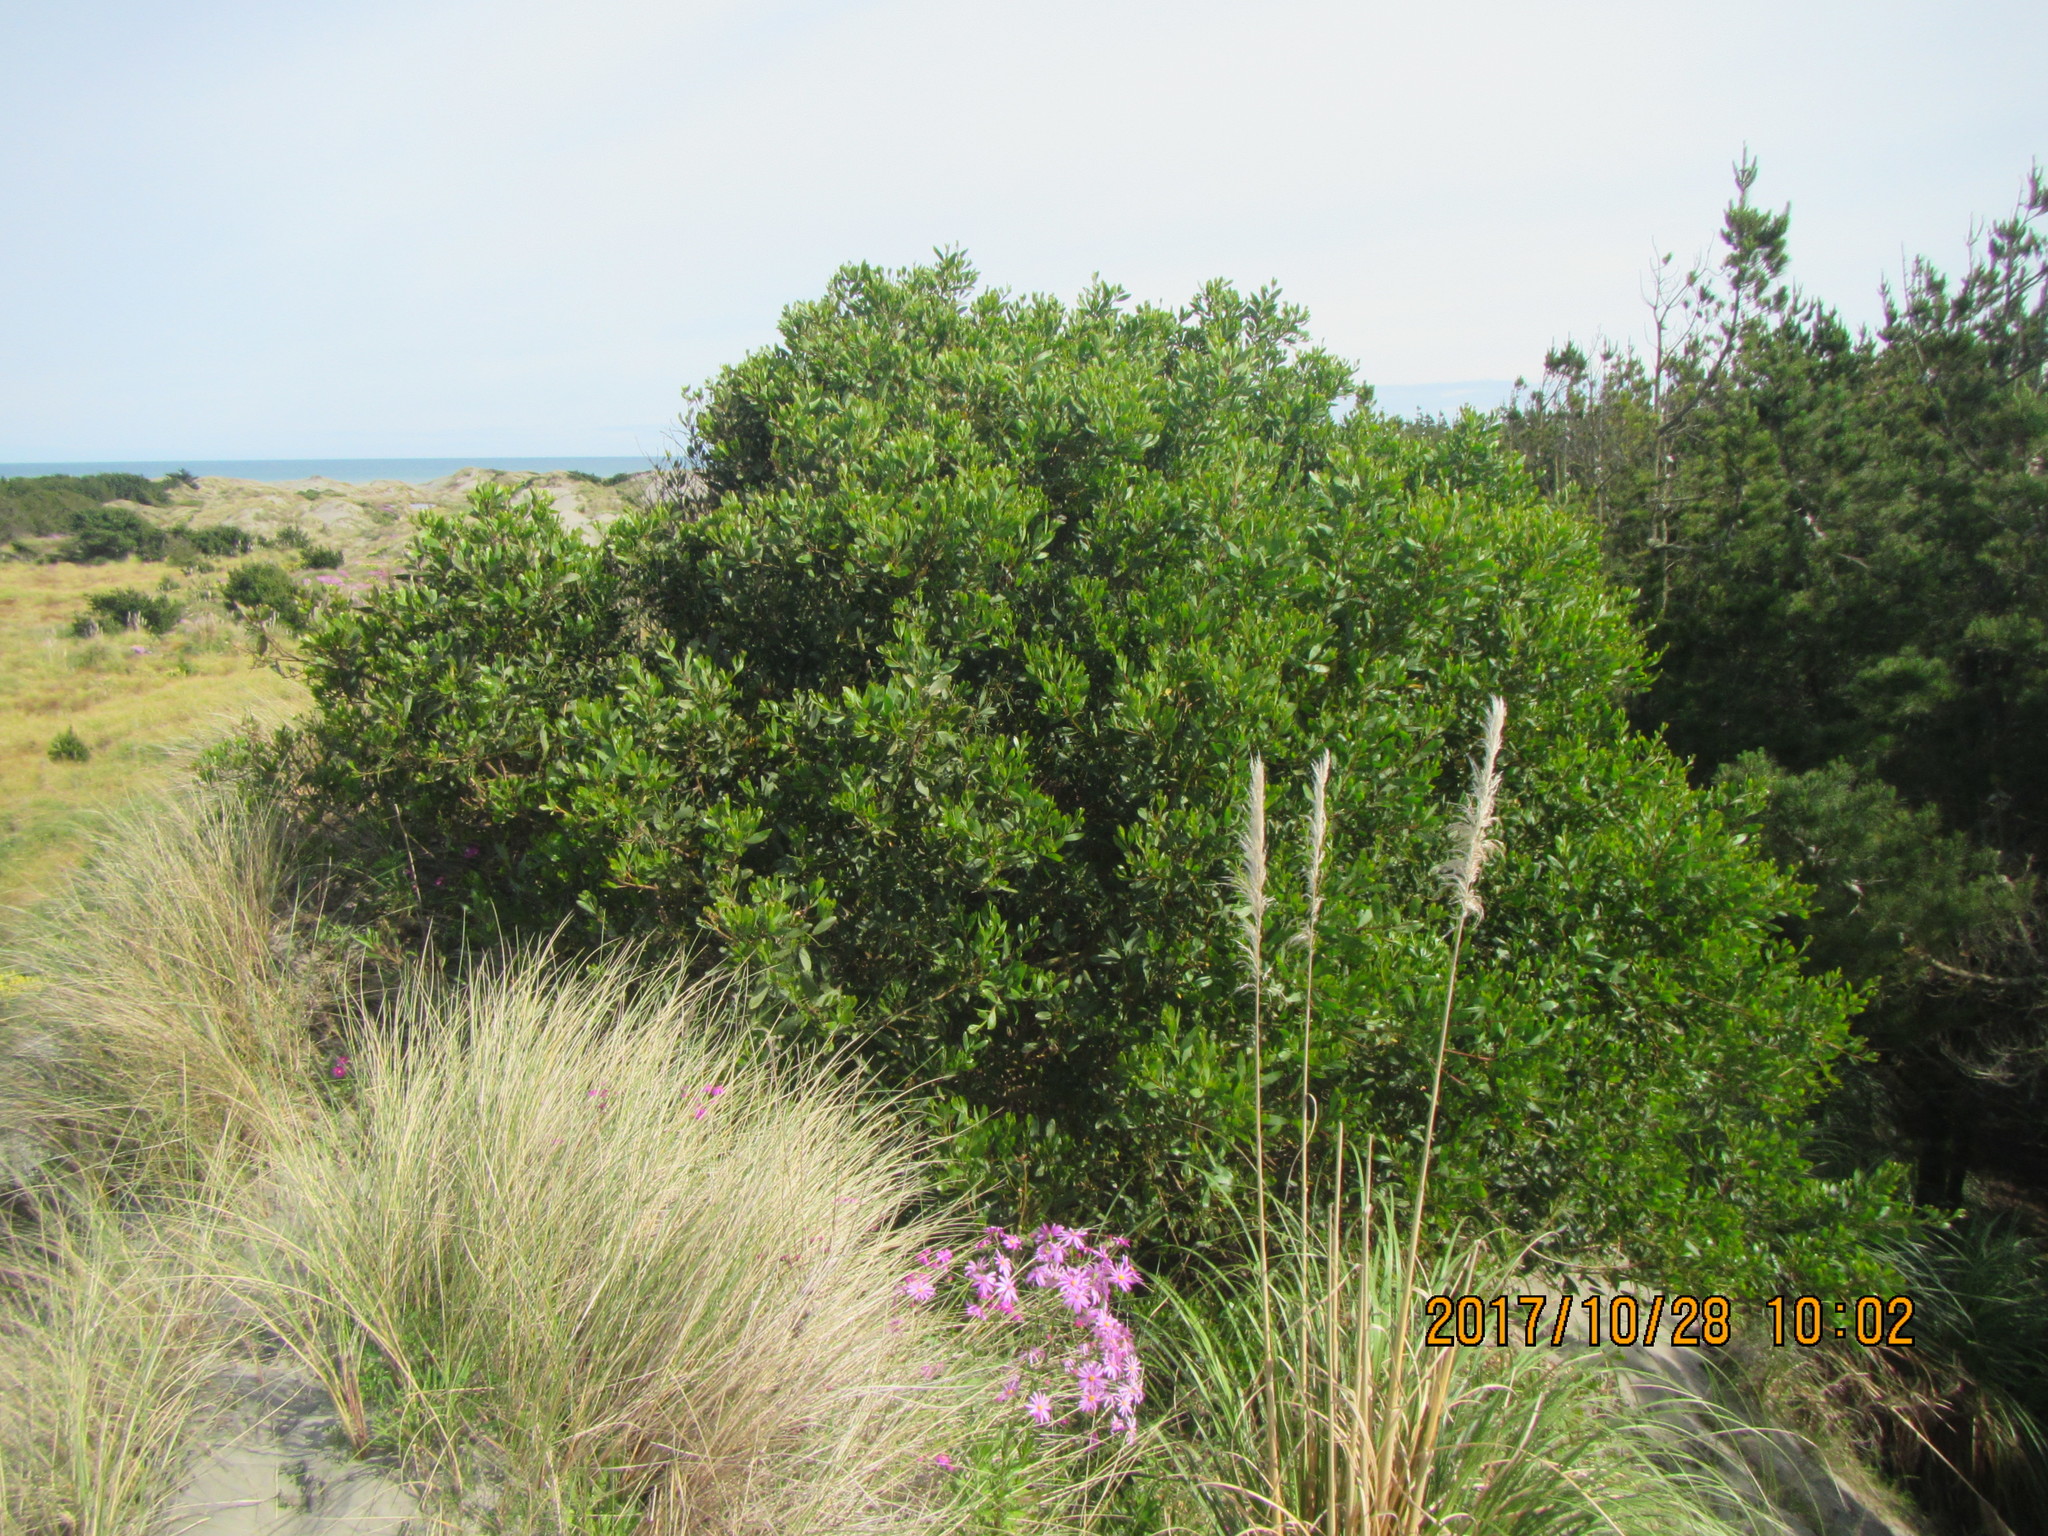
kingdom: Plantae
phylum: Tracheophyta
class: Magnoliopsida
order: Fabales
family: Fabaceae
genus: Acacia
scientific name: Acacia longifolia
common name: Sydney golden wattle
